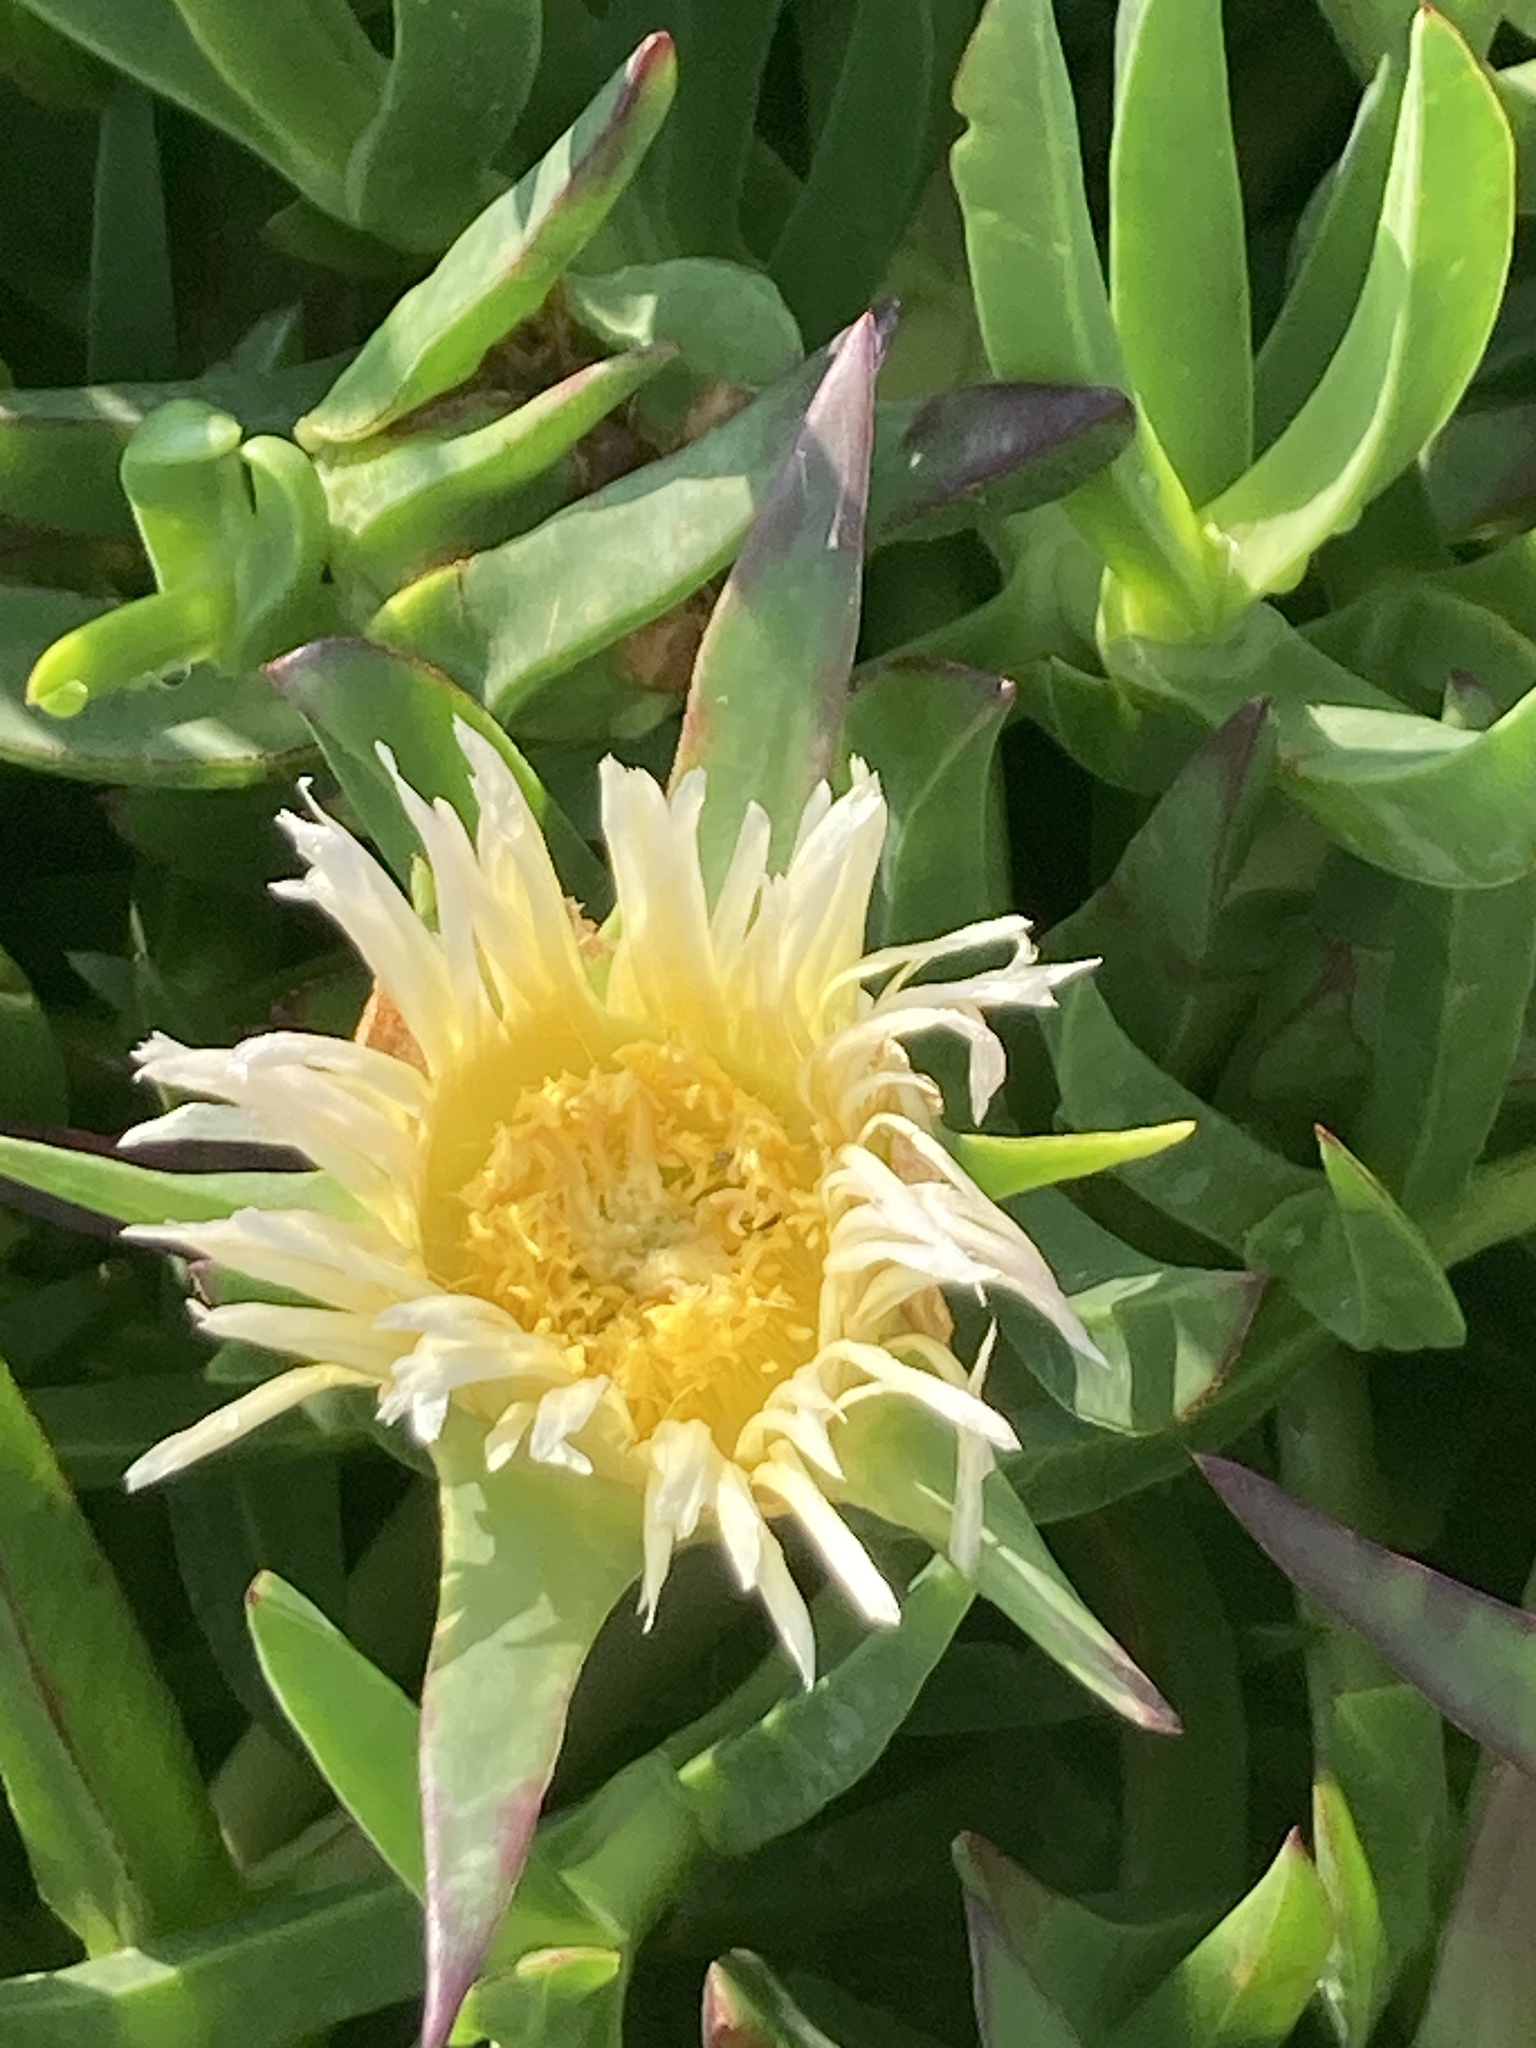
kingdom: Plantae
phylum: Tracheophyta
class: Magnoliopsida
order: Caryophyllales
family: Aizoaceae
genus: Carpobrotus
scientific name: Carpobrotus edulis
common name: Hottentot-fig
